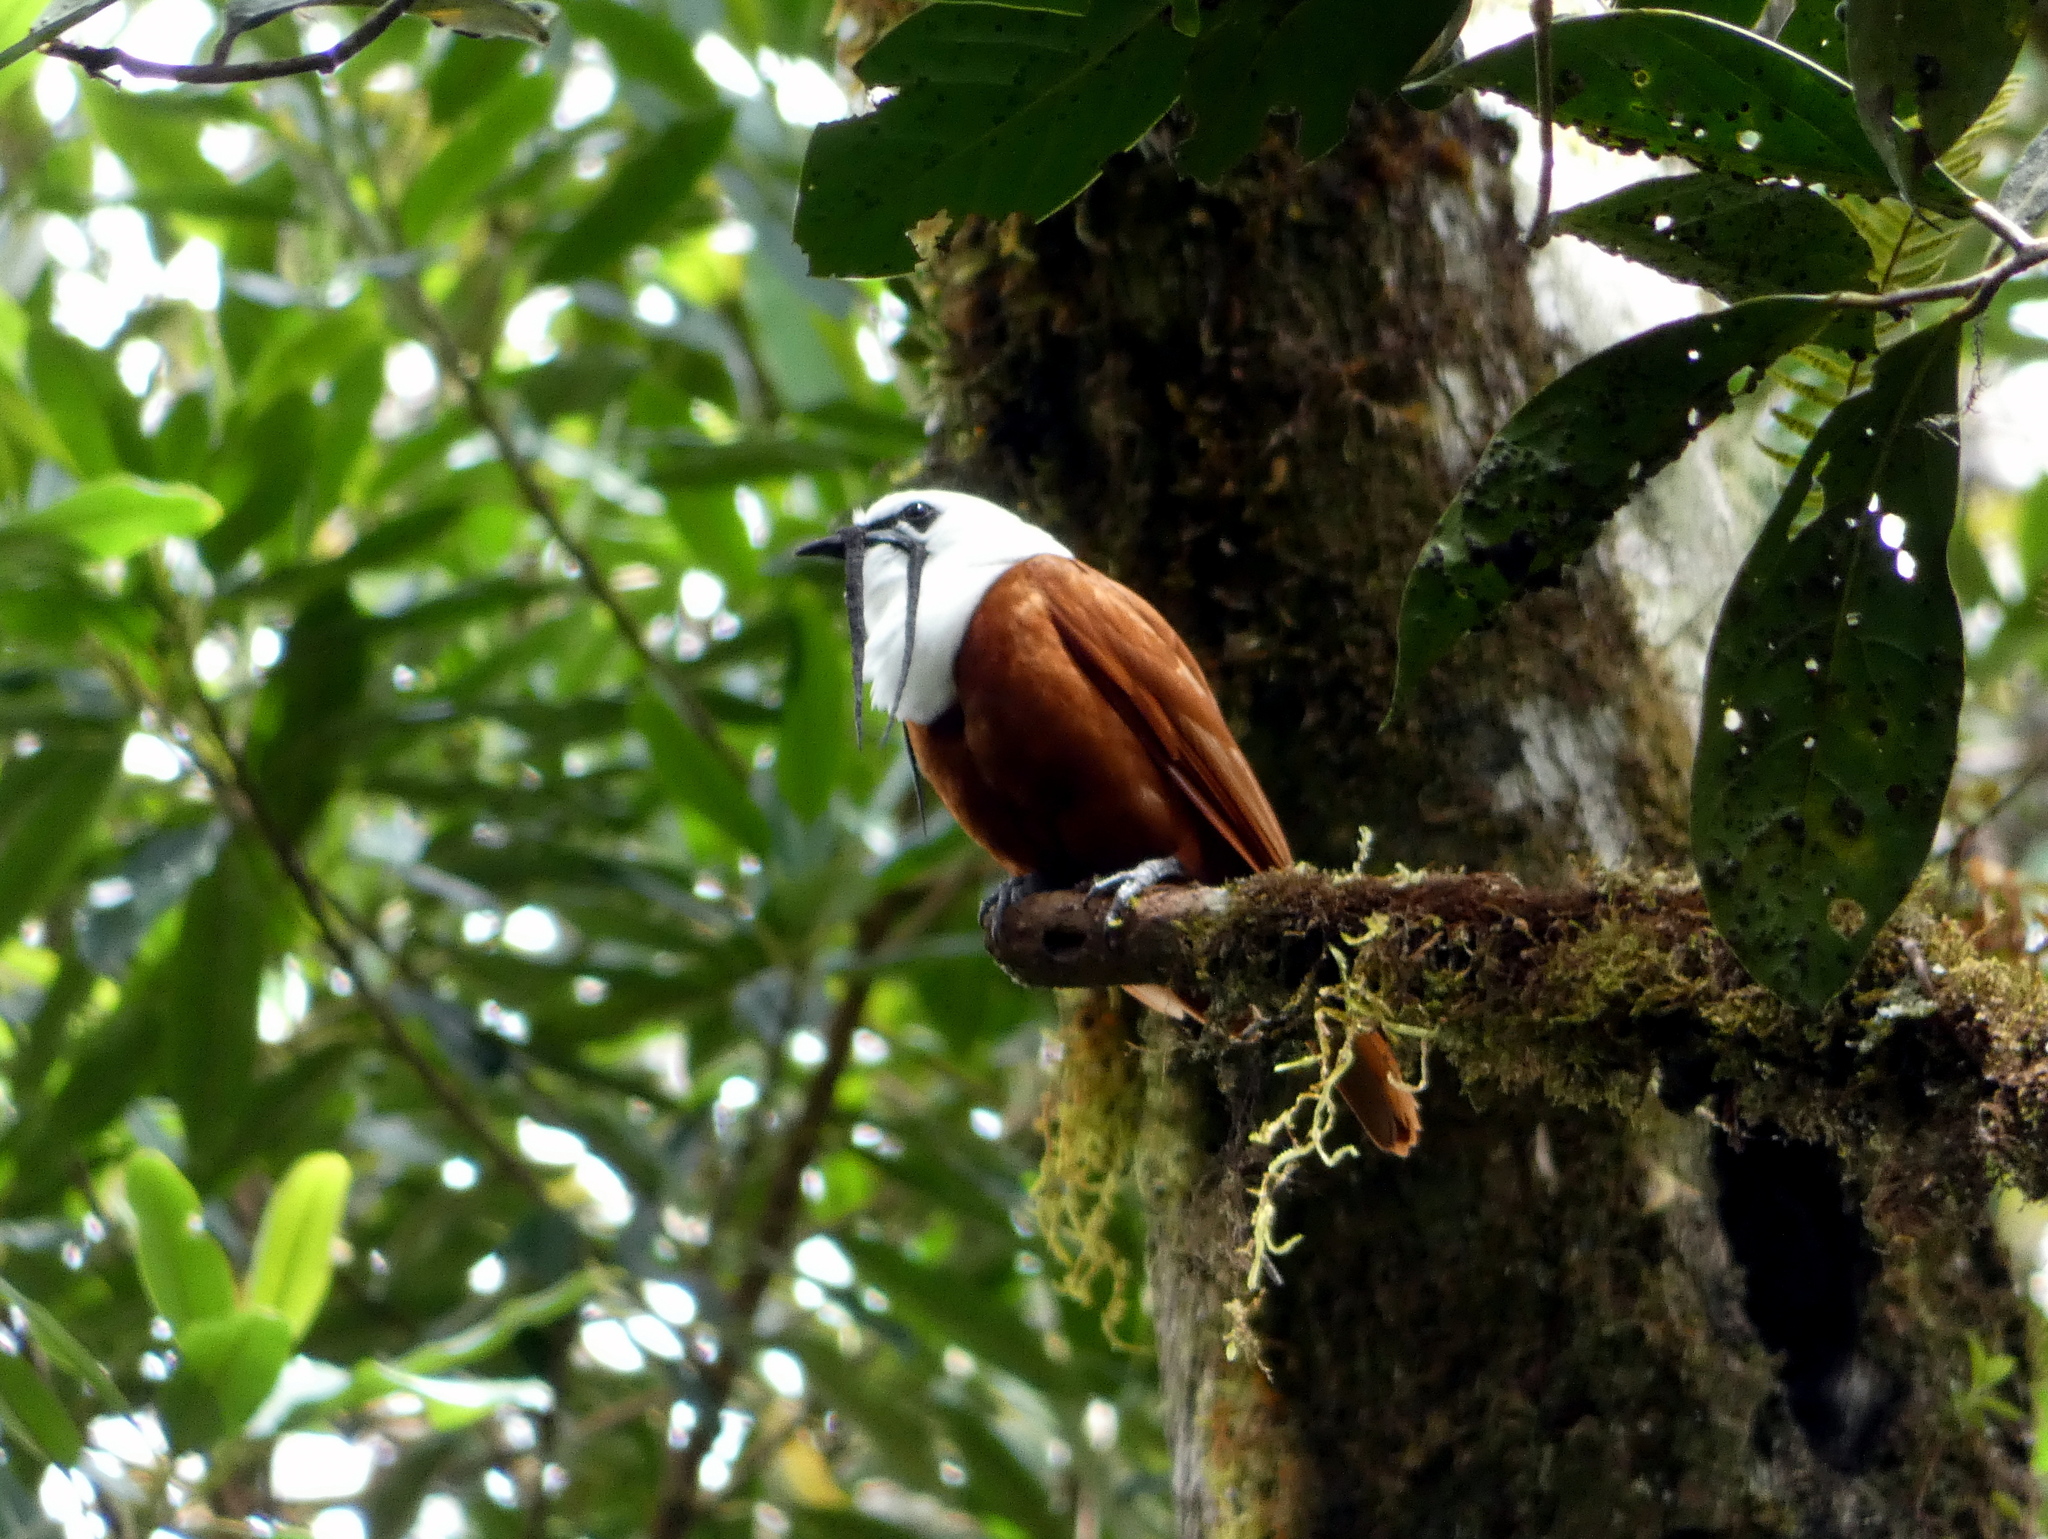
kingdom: Animalia
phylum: Chordata
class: Aves
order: Passeriformes
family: Cotingidae
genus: Procnias
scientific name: Procnias tricarunculatus
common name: Three-wattled bellbird
